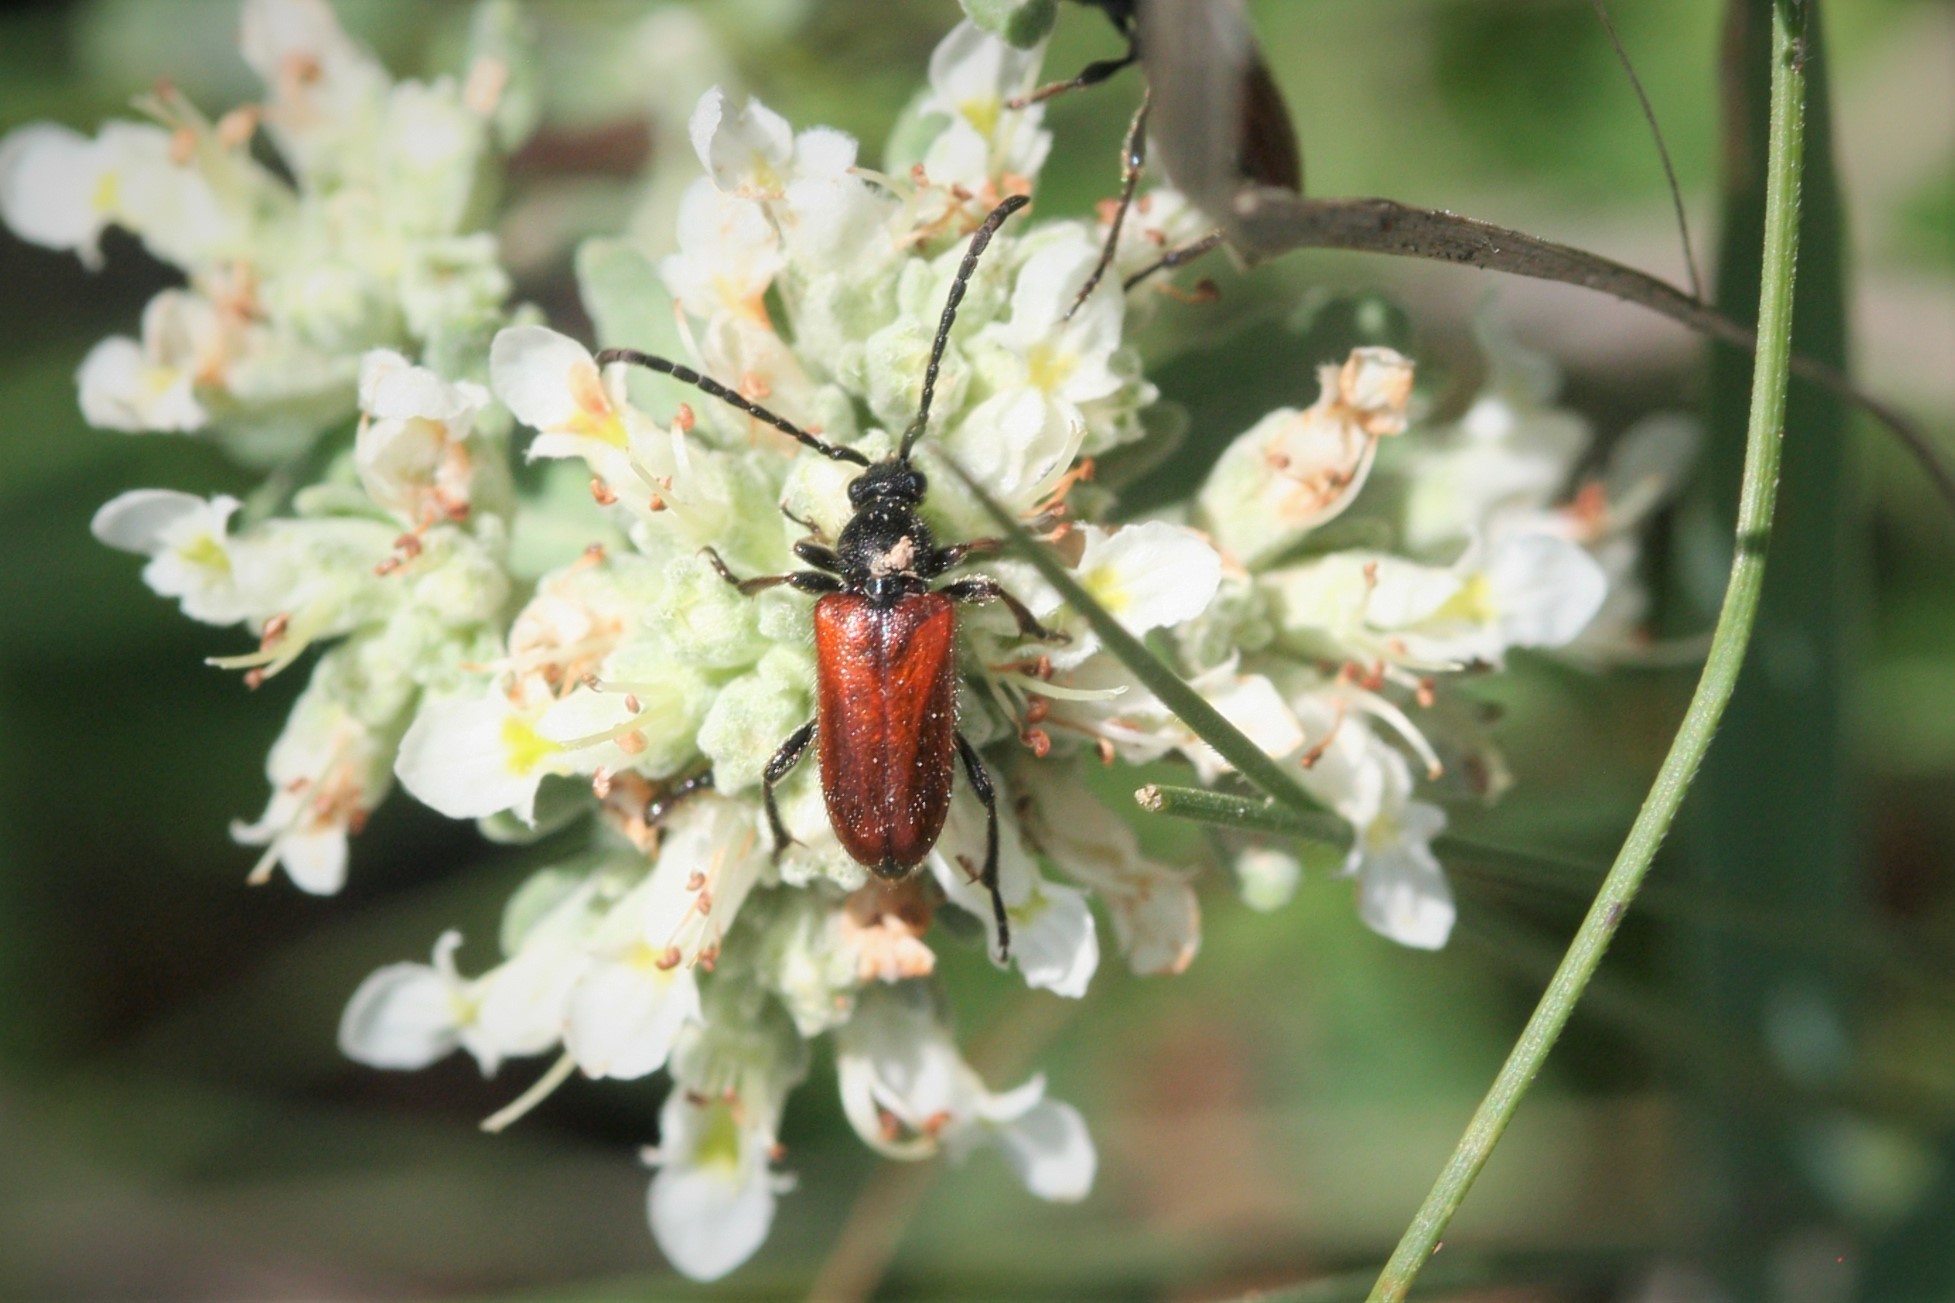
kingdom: Animalia
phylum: Arthropoda
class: Insecta
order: Coleoptera
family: Cerambycidae
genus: Pseudovadonia
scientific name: Pseudovadonia livida
